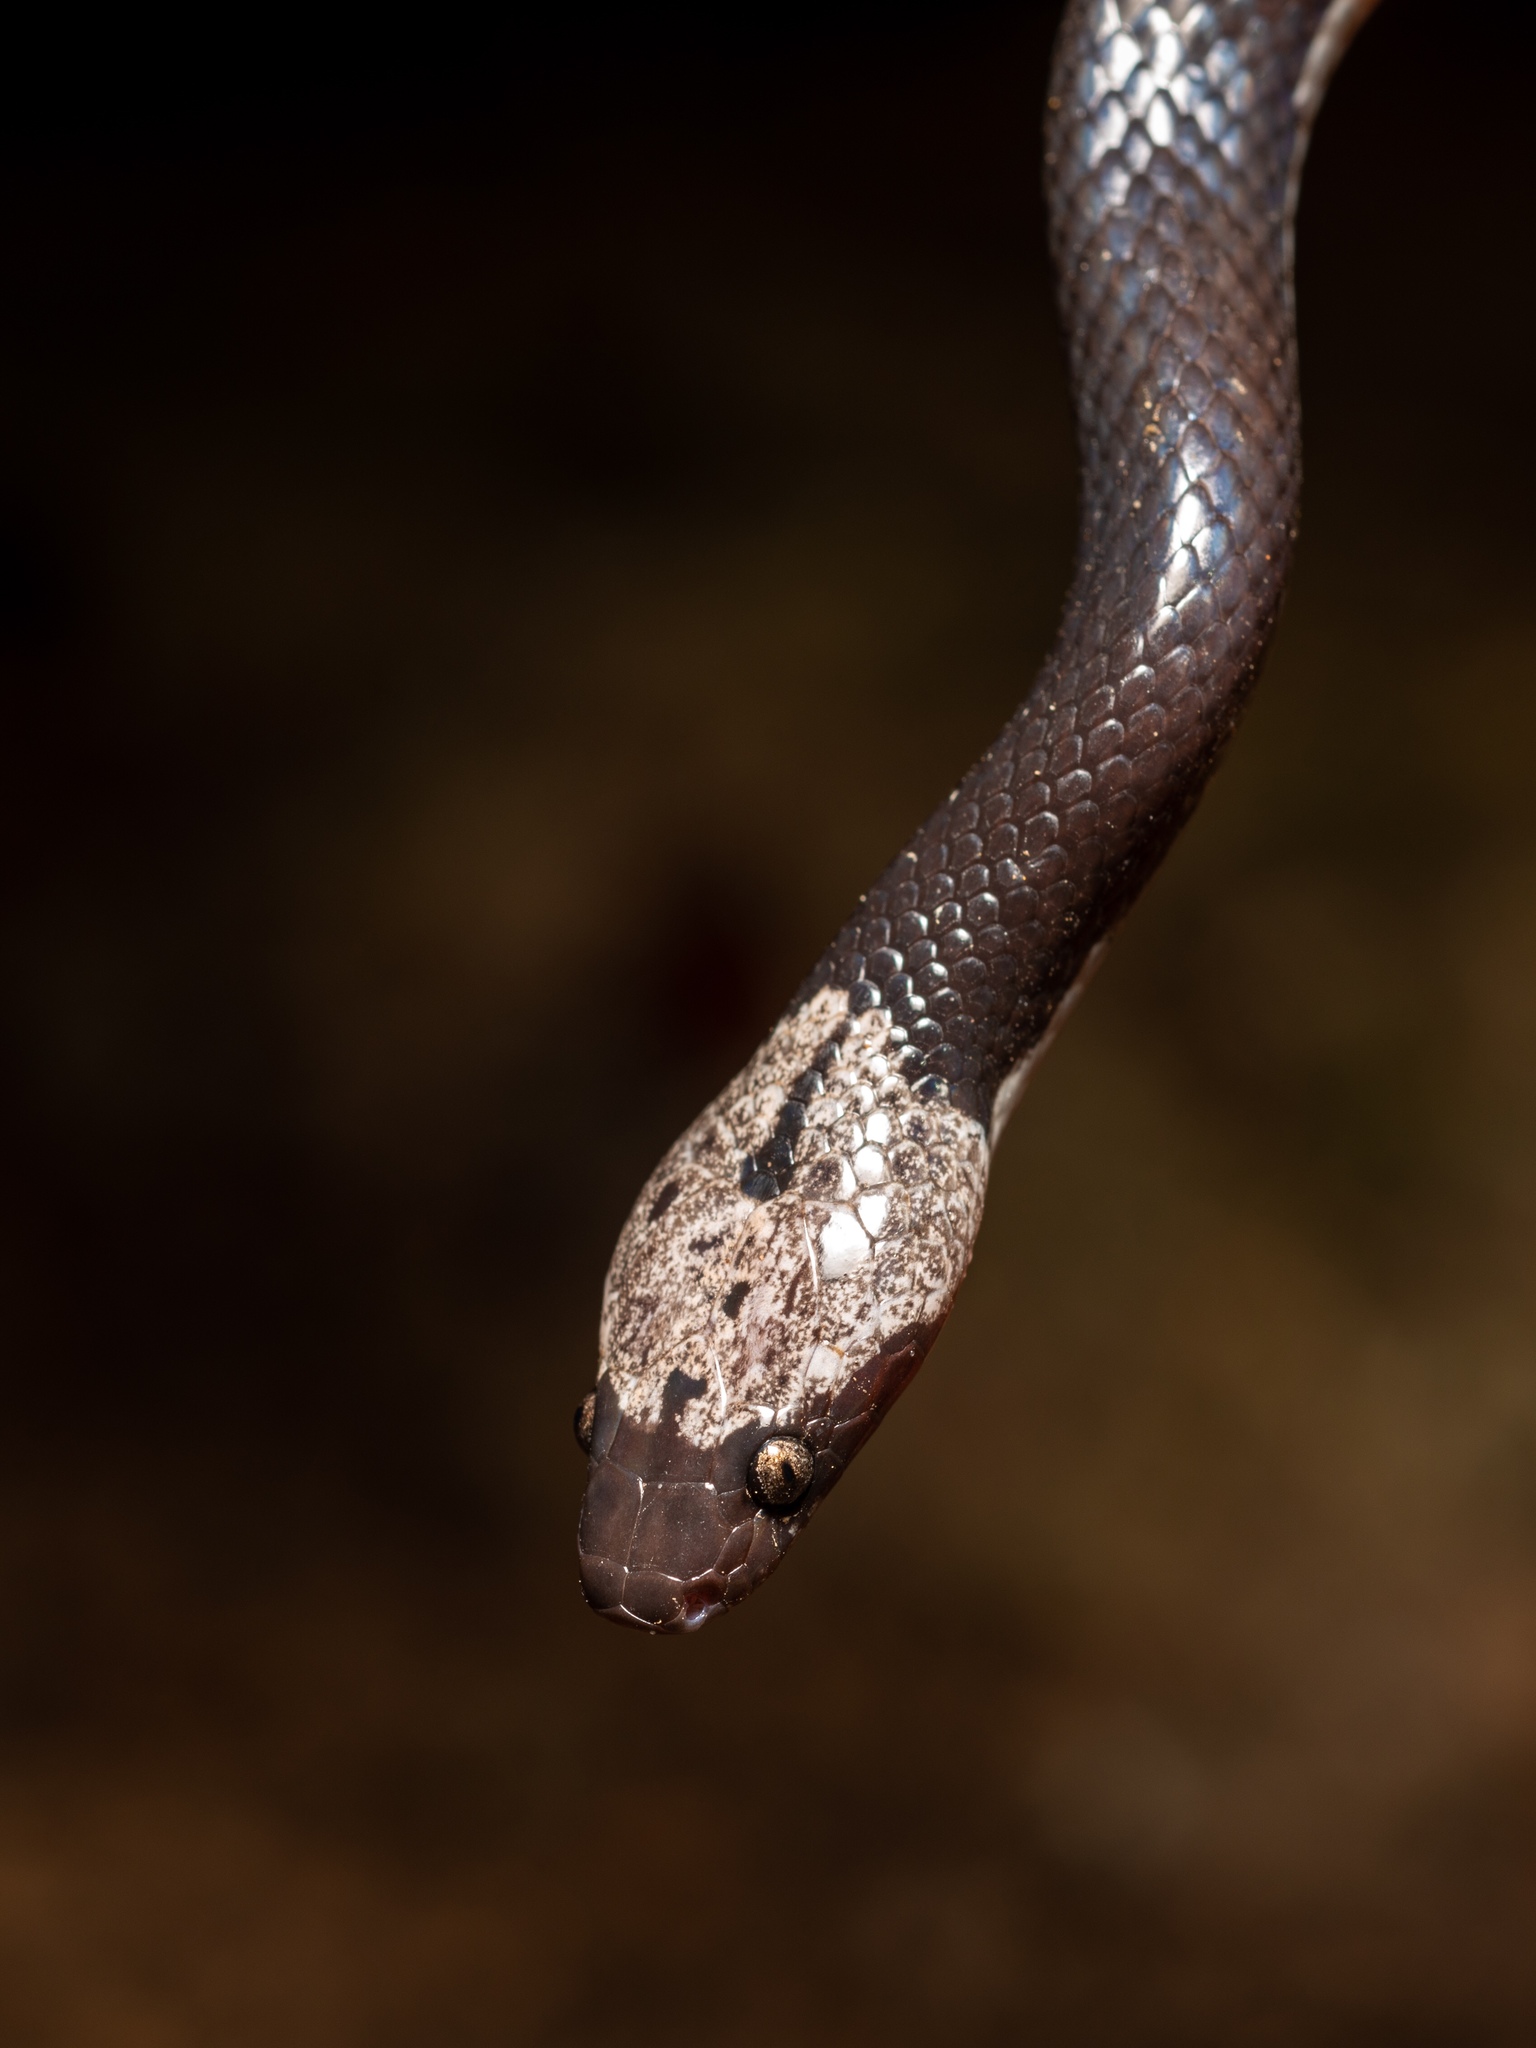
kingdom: Animalia
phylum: Chordata
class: Squamata
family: Colubridae
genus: Lycodon
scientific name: Lycodon futsingensis
